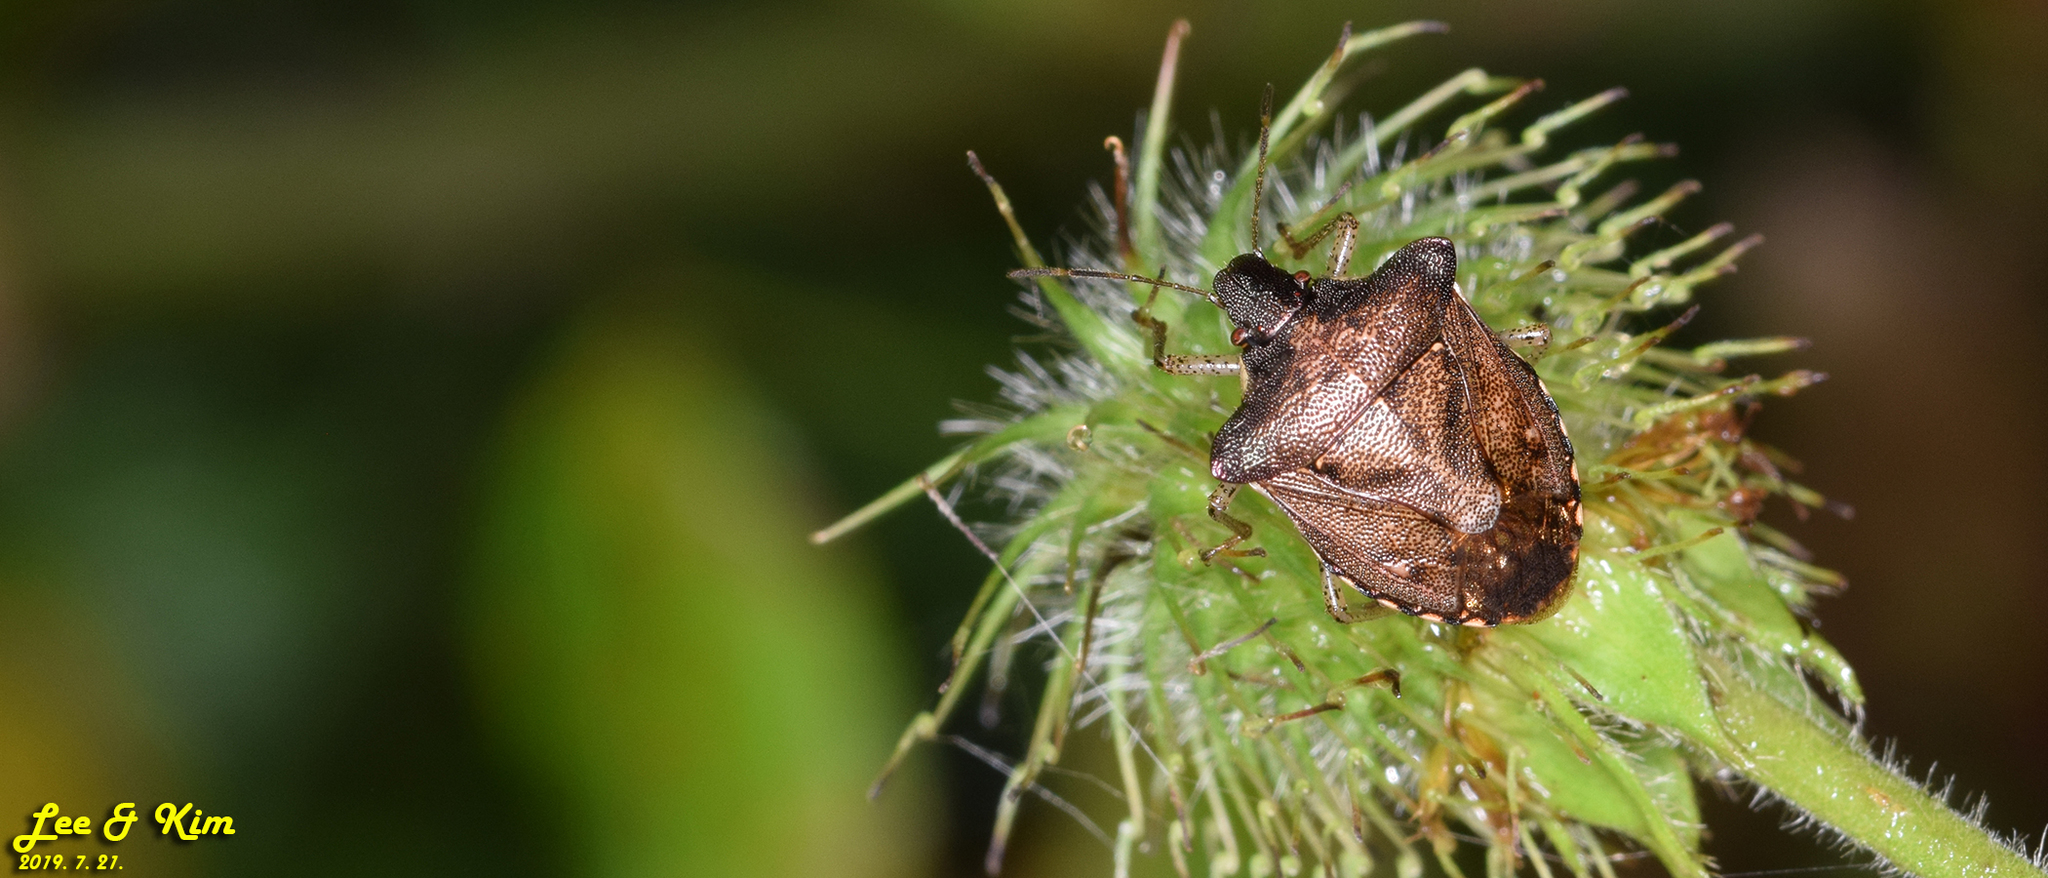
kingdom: Animalia
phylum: Arthropoda
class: Insecta
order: Hemiptera
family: Pentatomidae
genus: Carbula
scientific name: Carbula putoni
